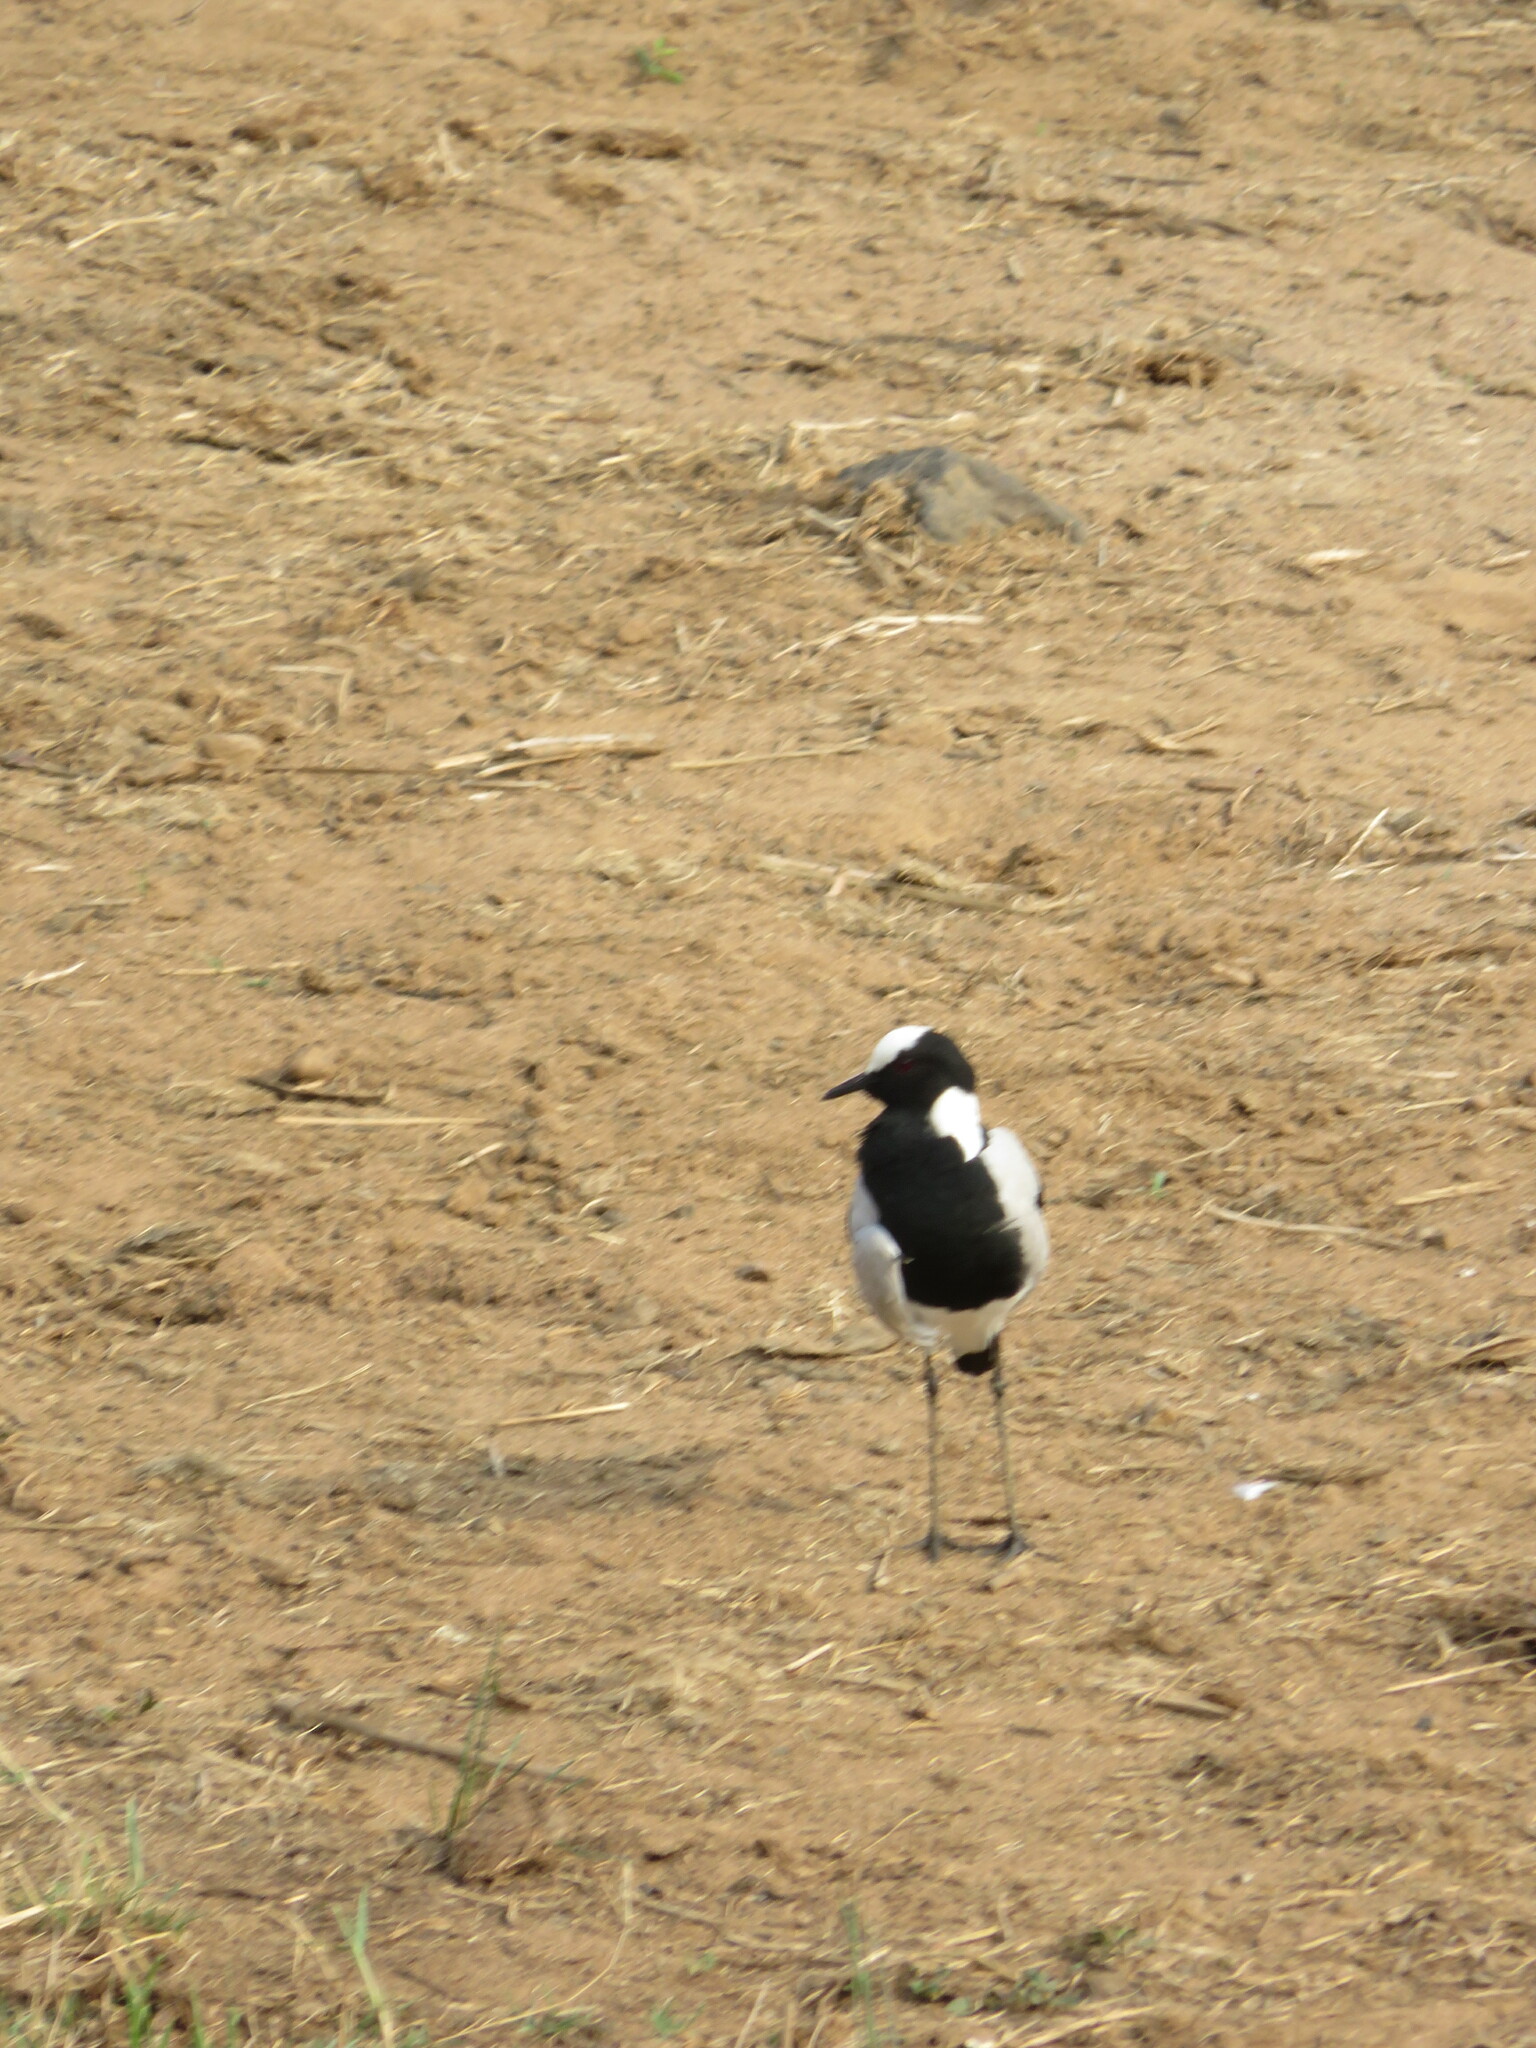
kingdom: Animalia
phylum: Chordata
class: Aves
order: Charadriiformes
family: Charadriidae
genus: Vanellus
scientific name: Vanellus armatus
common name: Blacksmith lapwing
